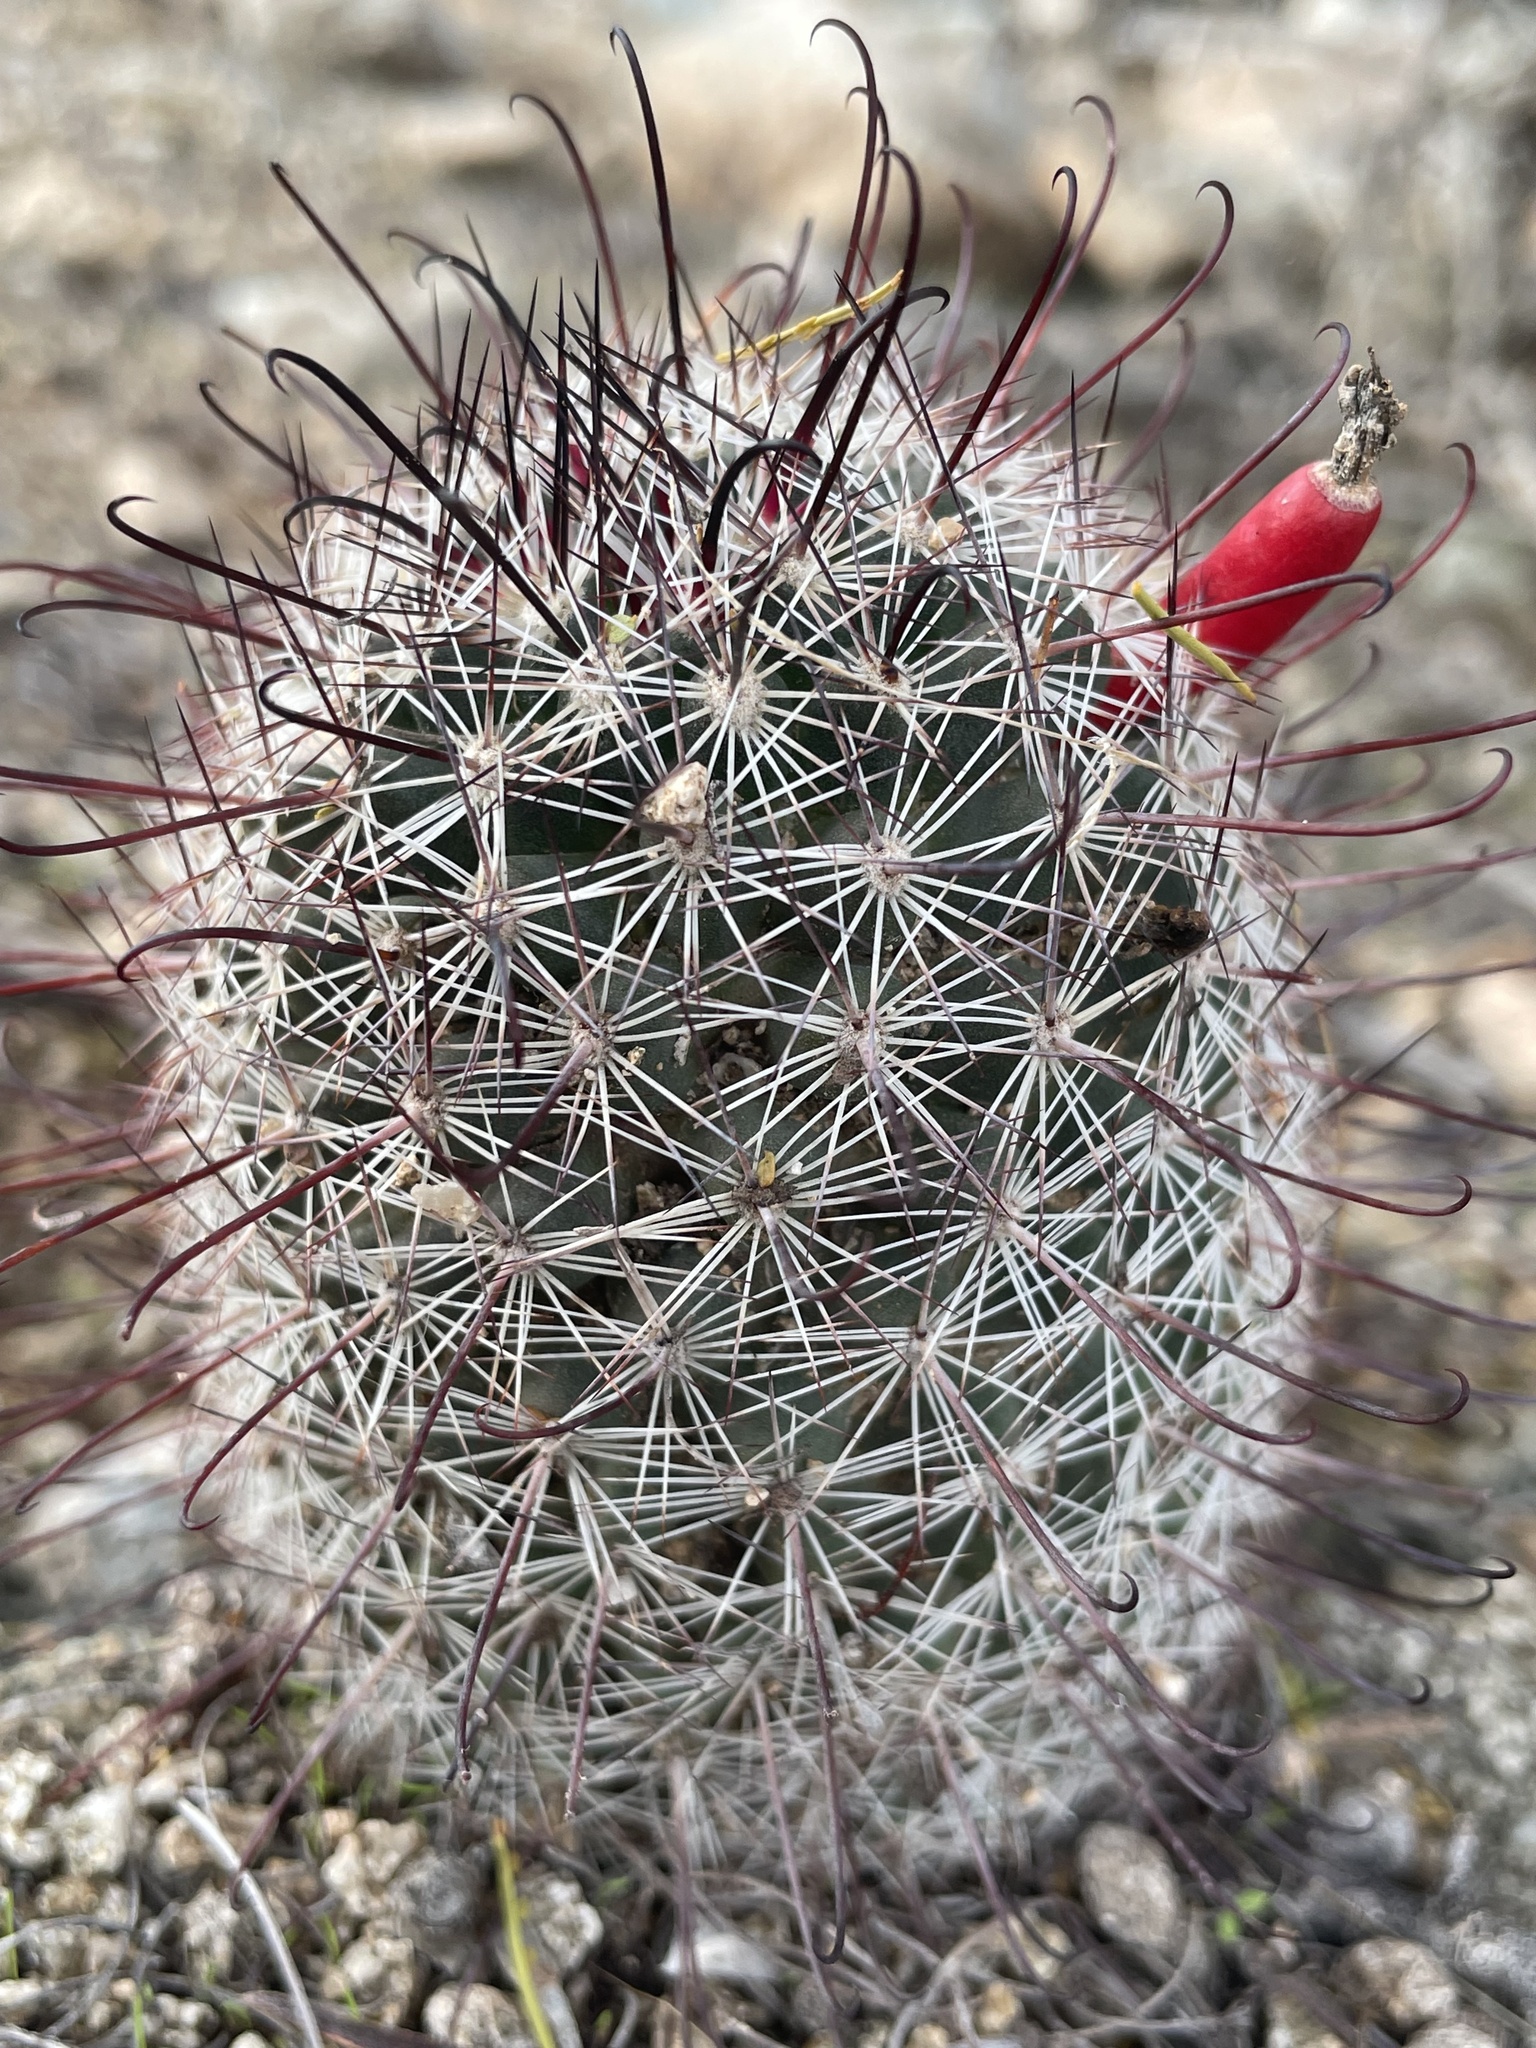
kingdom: Plantae
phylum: Tracheophyta
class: Magnoliopsida
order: Caryophyllales
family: Cactaceae
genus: Cochemiea
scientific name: Cochemiea grahamii
